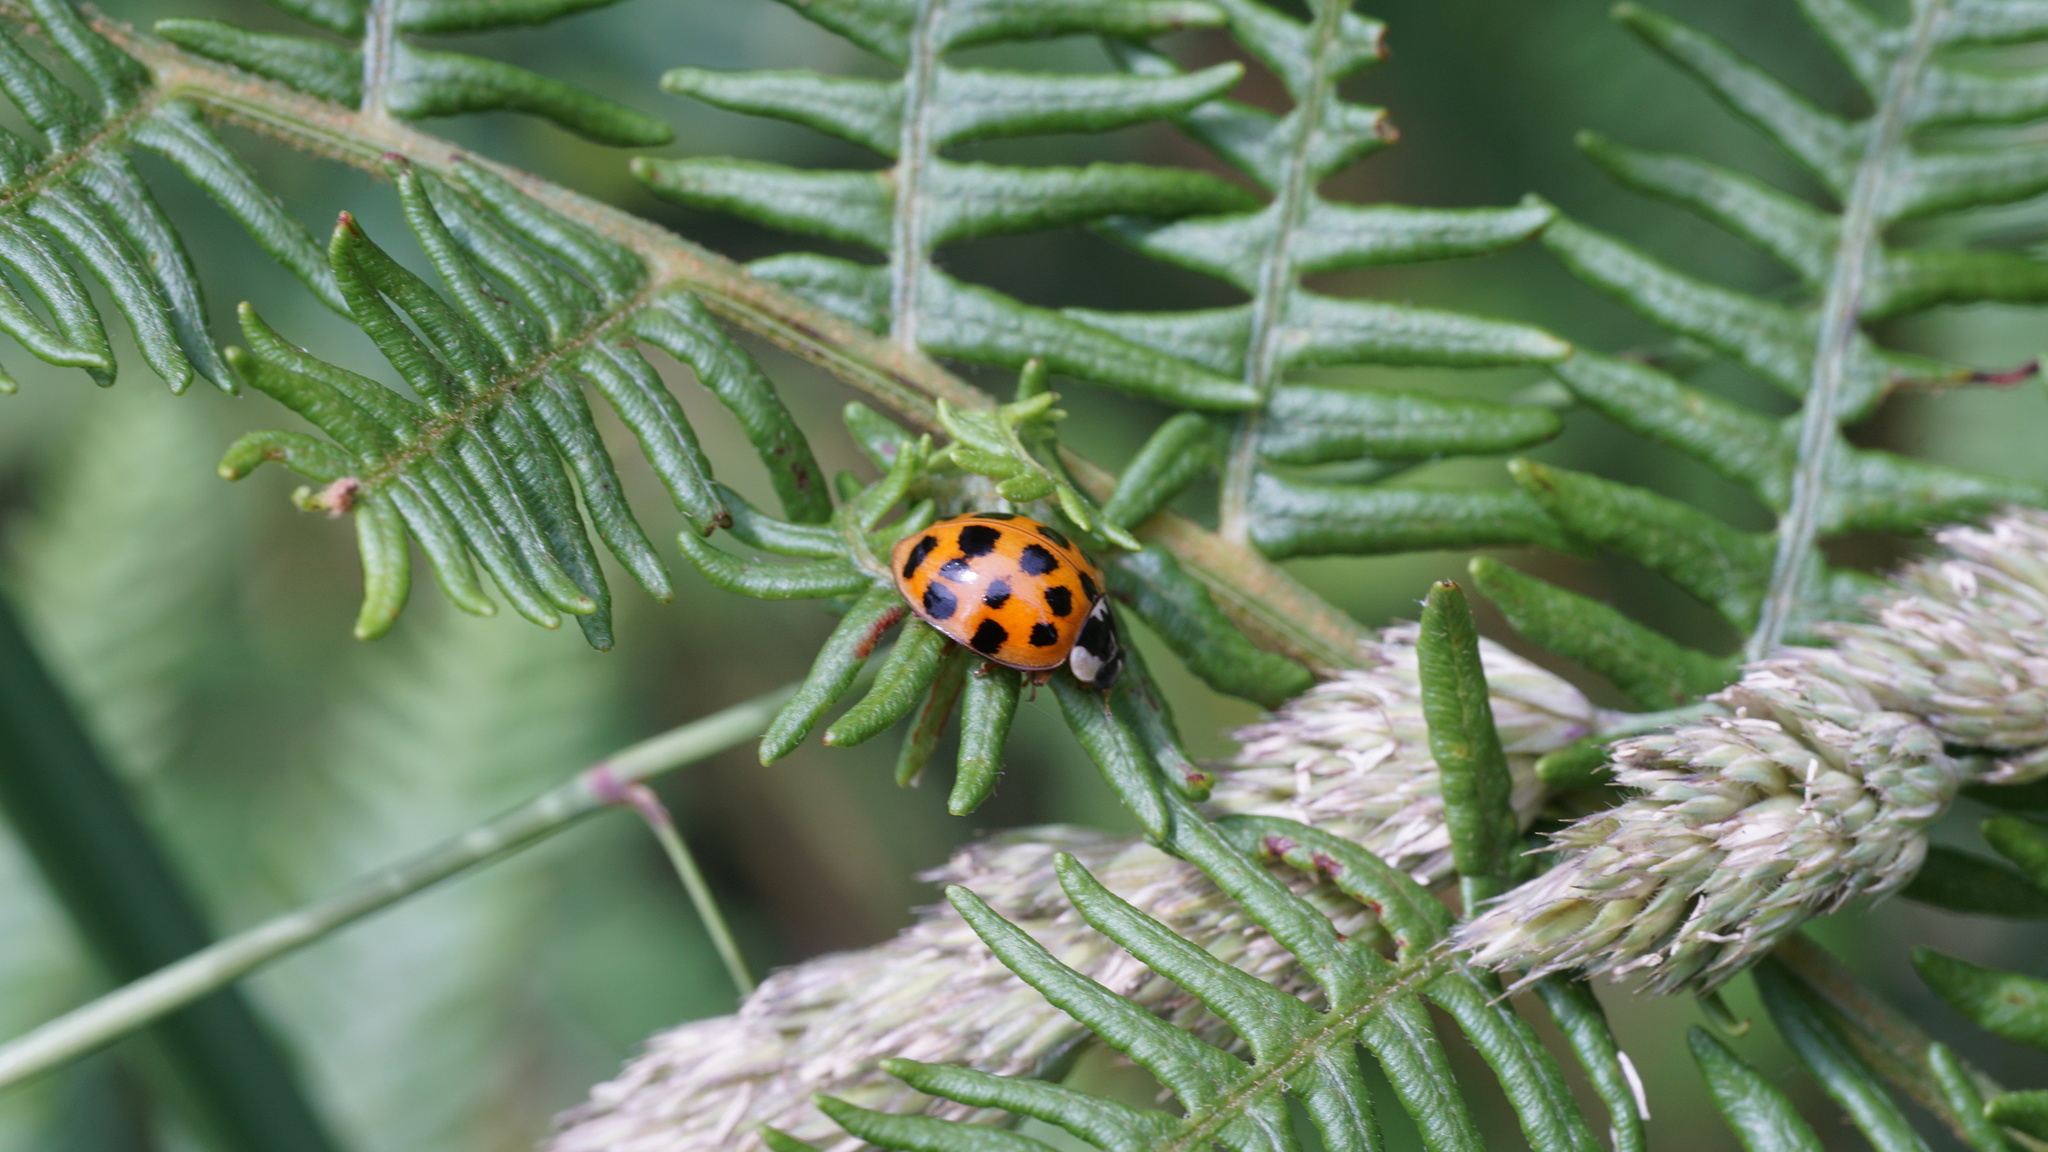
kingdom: Animalia
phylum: Arthropoda
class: Insecta
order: Coleoptera
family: Coccinellidae
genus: Harmonia
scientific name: Harmonia axyridis
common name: Harlequin ladybird
